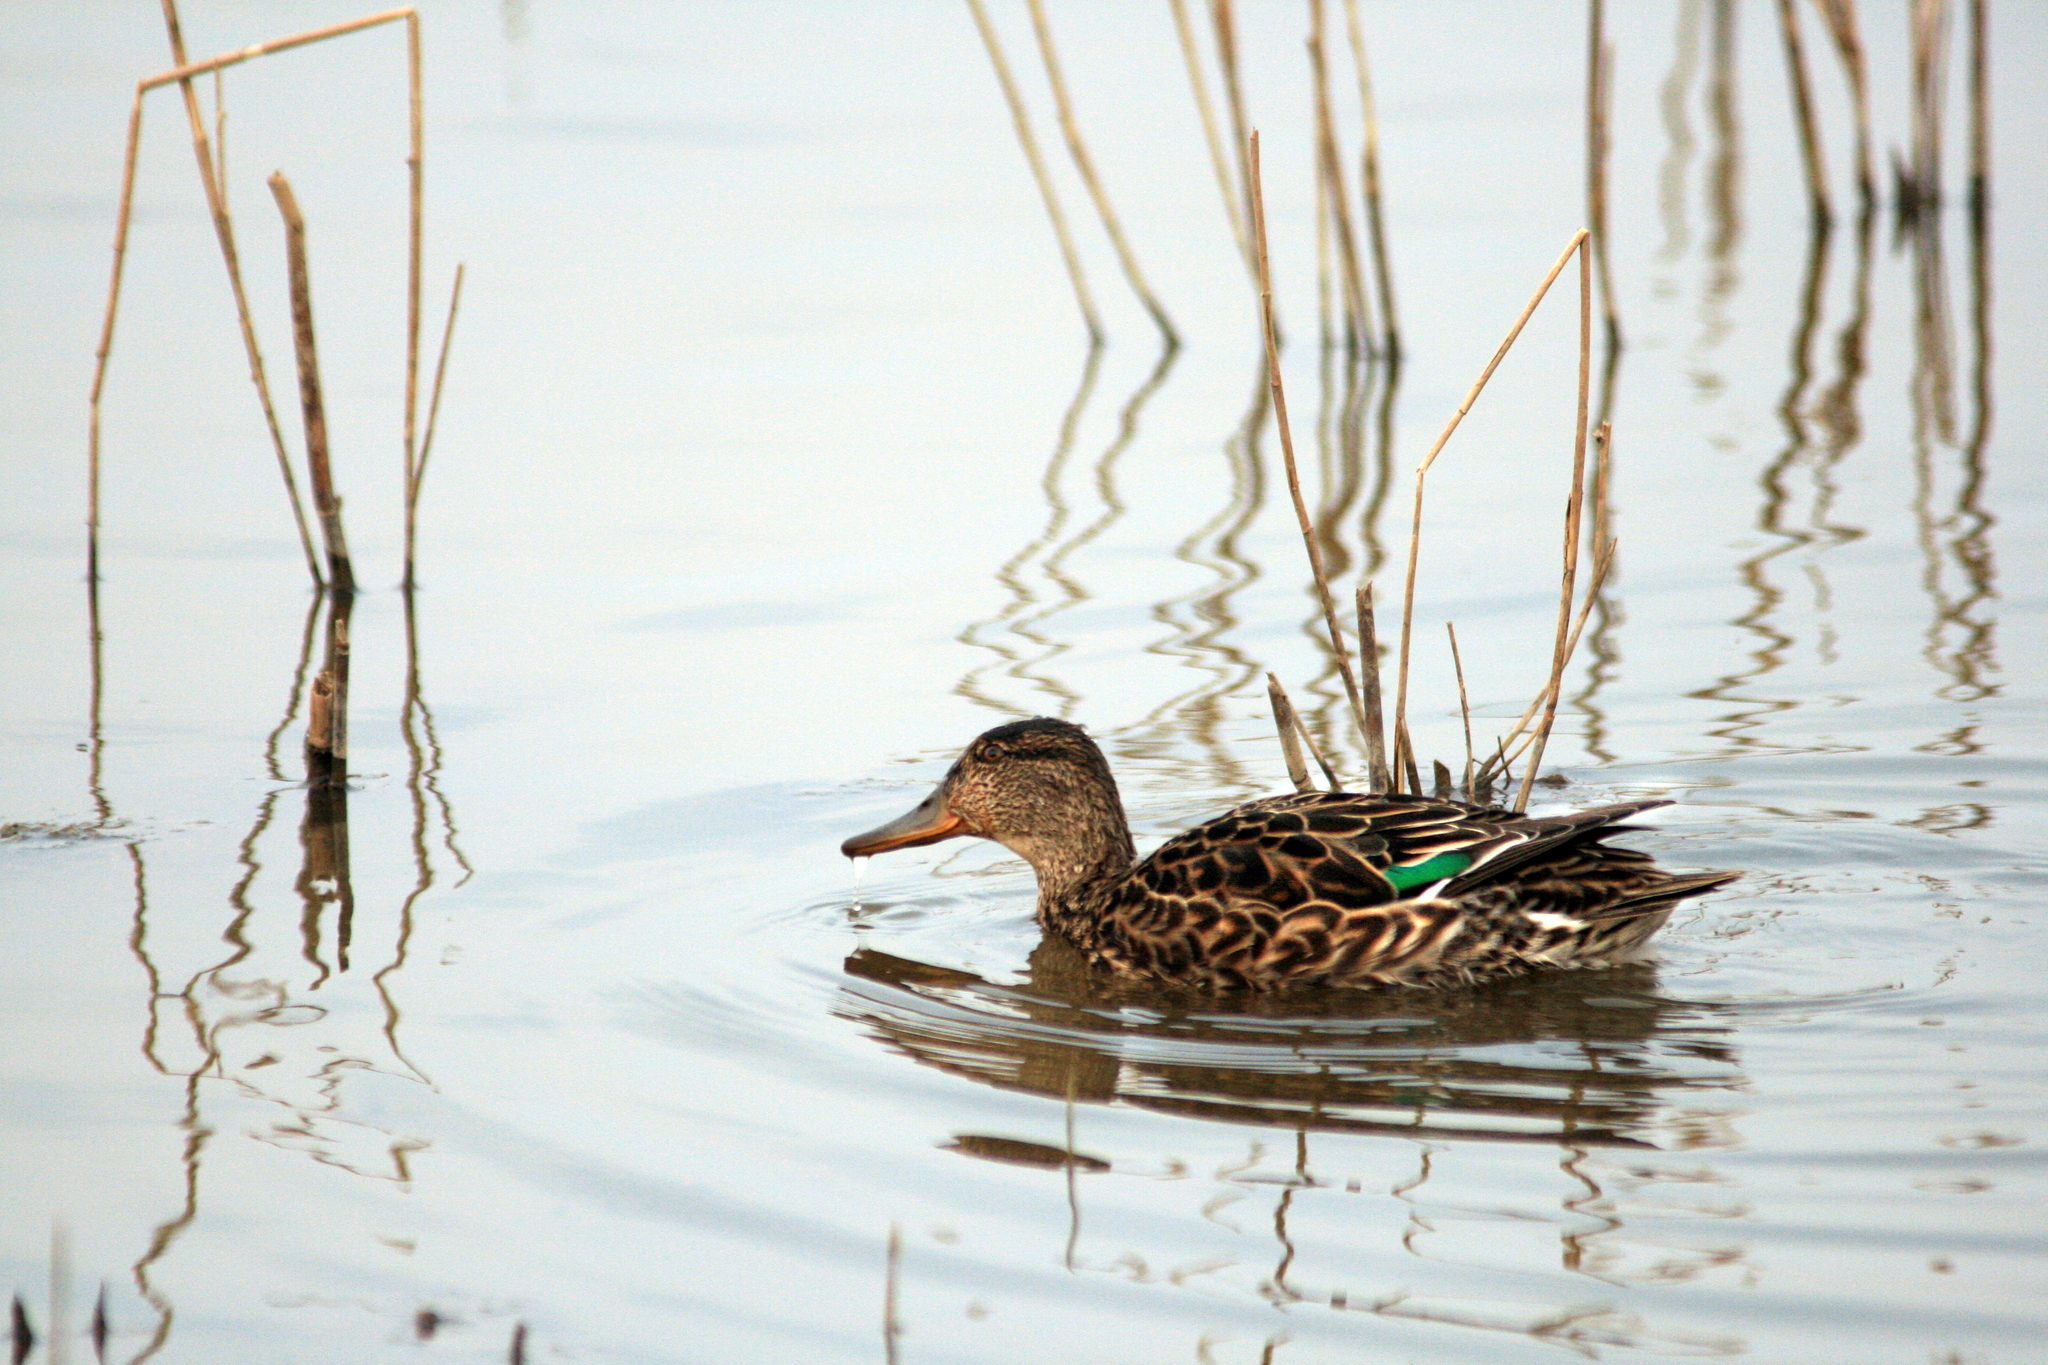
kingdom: Animalia
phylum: Chordata
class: Aves
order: Anseriformes
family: Anatidae
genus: Anas
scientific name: Anas crecca
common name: Eurasian teal
